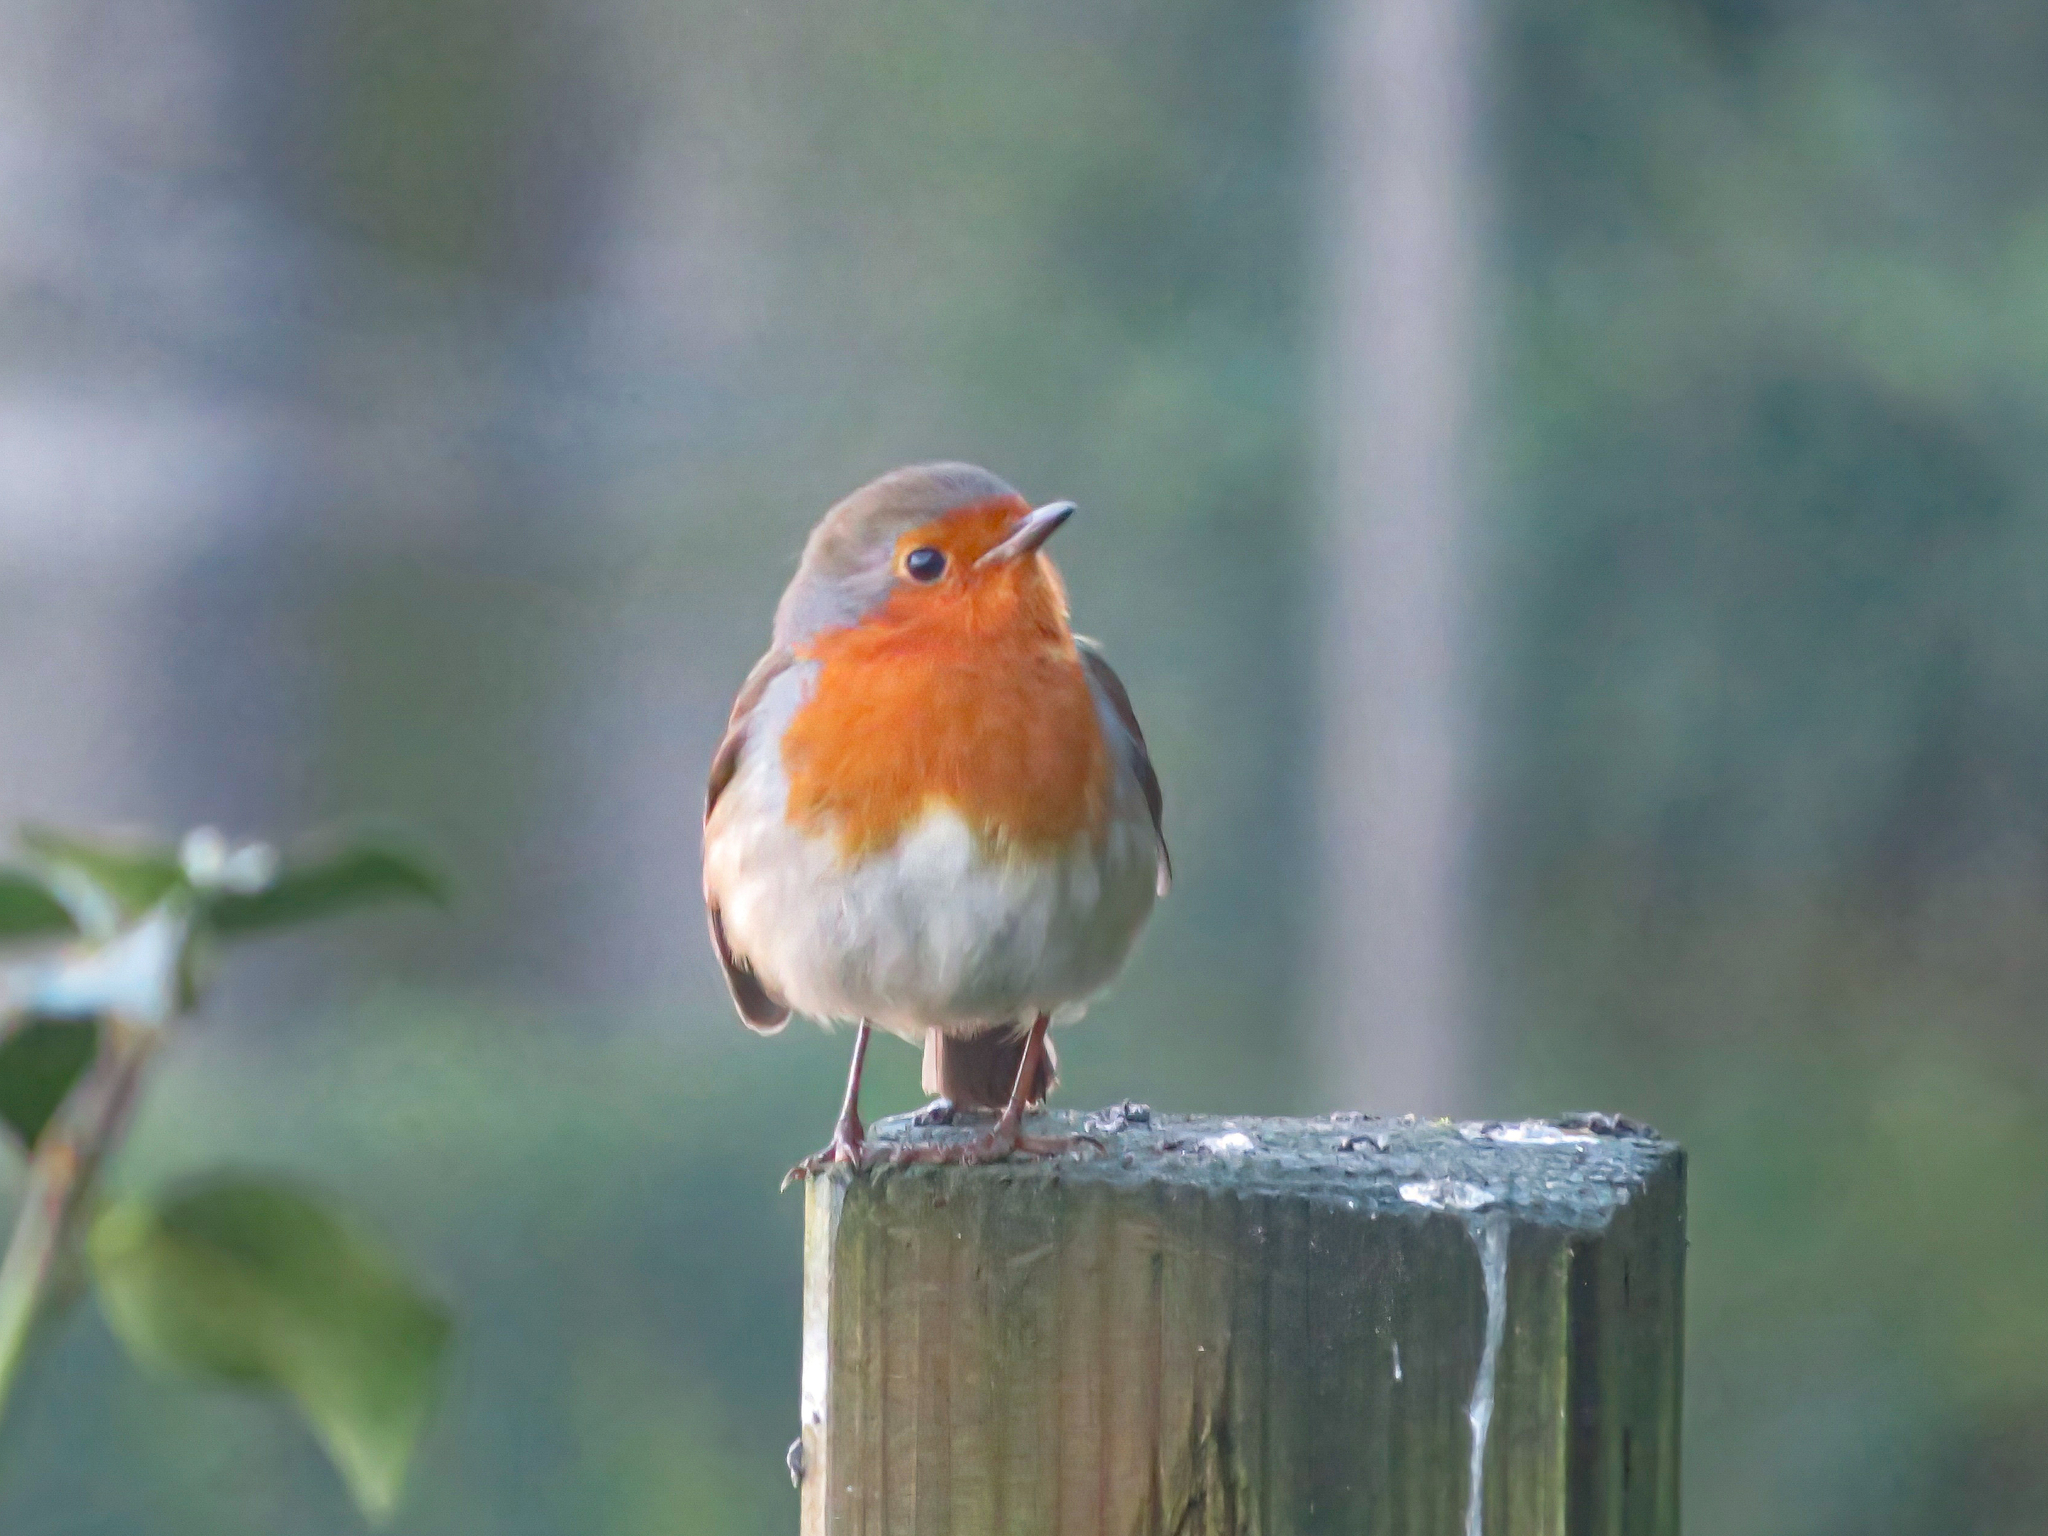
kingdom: Animalia
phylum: Chordata
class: Aves
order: Passeriformes
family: Muscicapidae
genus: Erithacus
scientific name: Erithacus rubecula
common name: European robin
